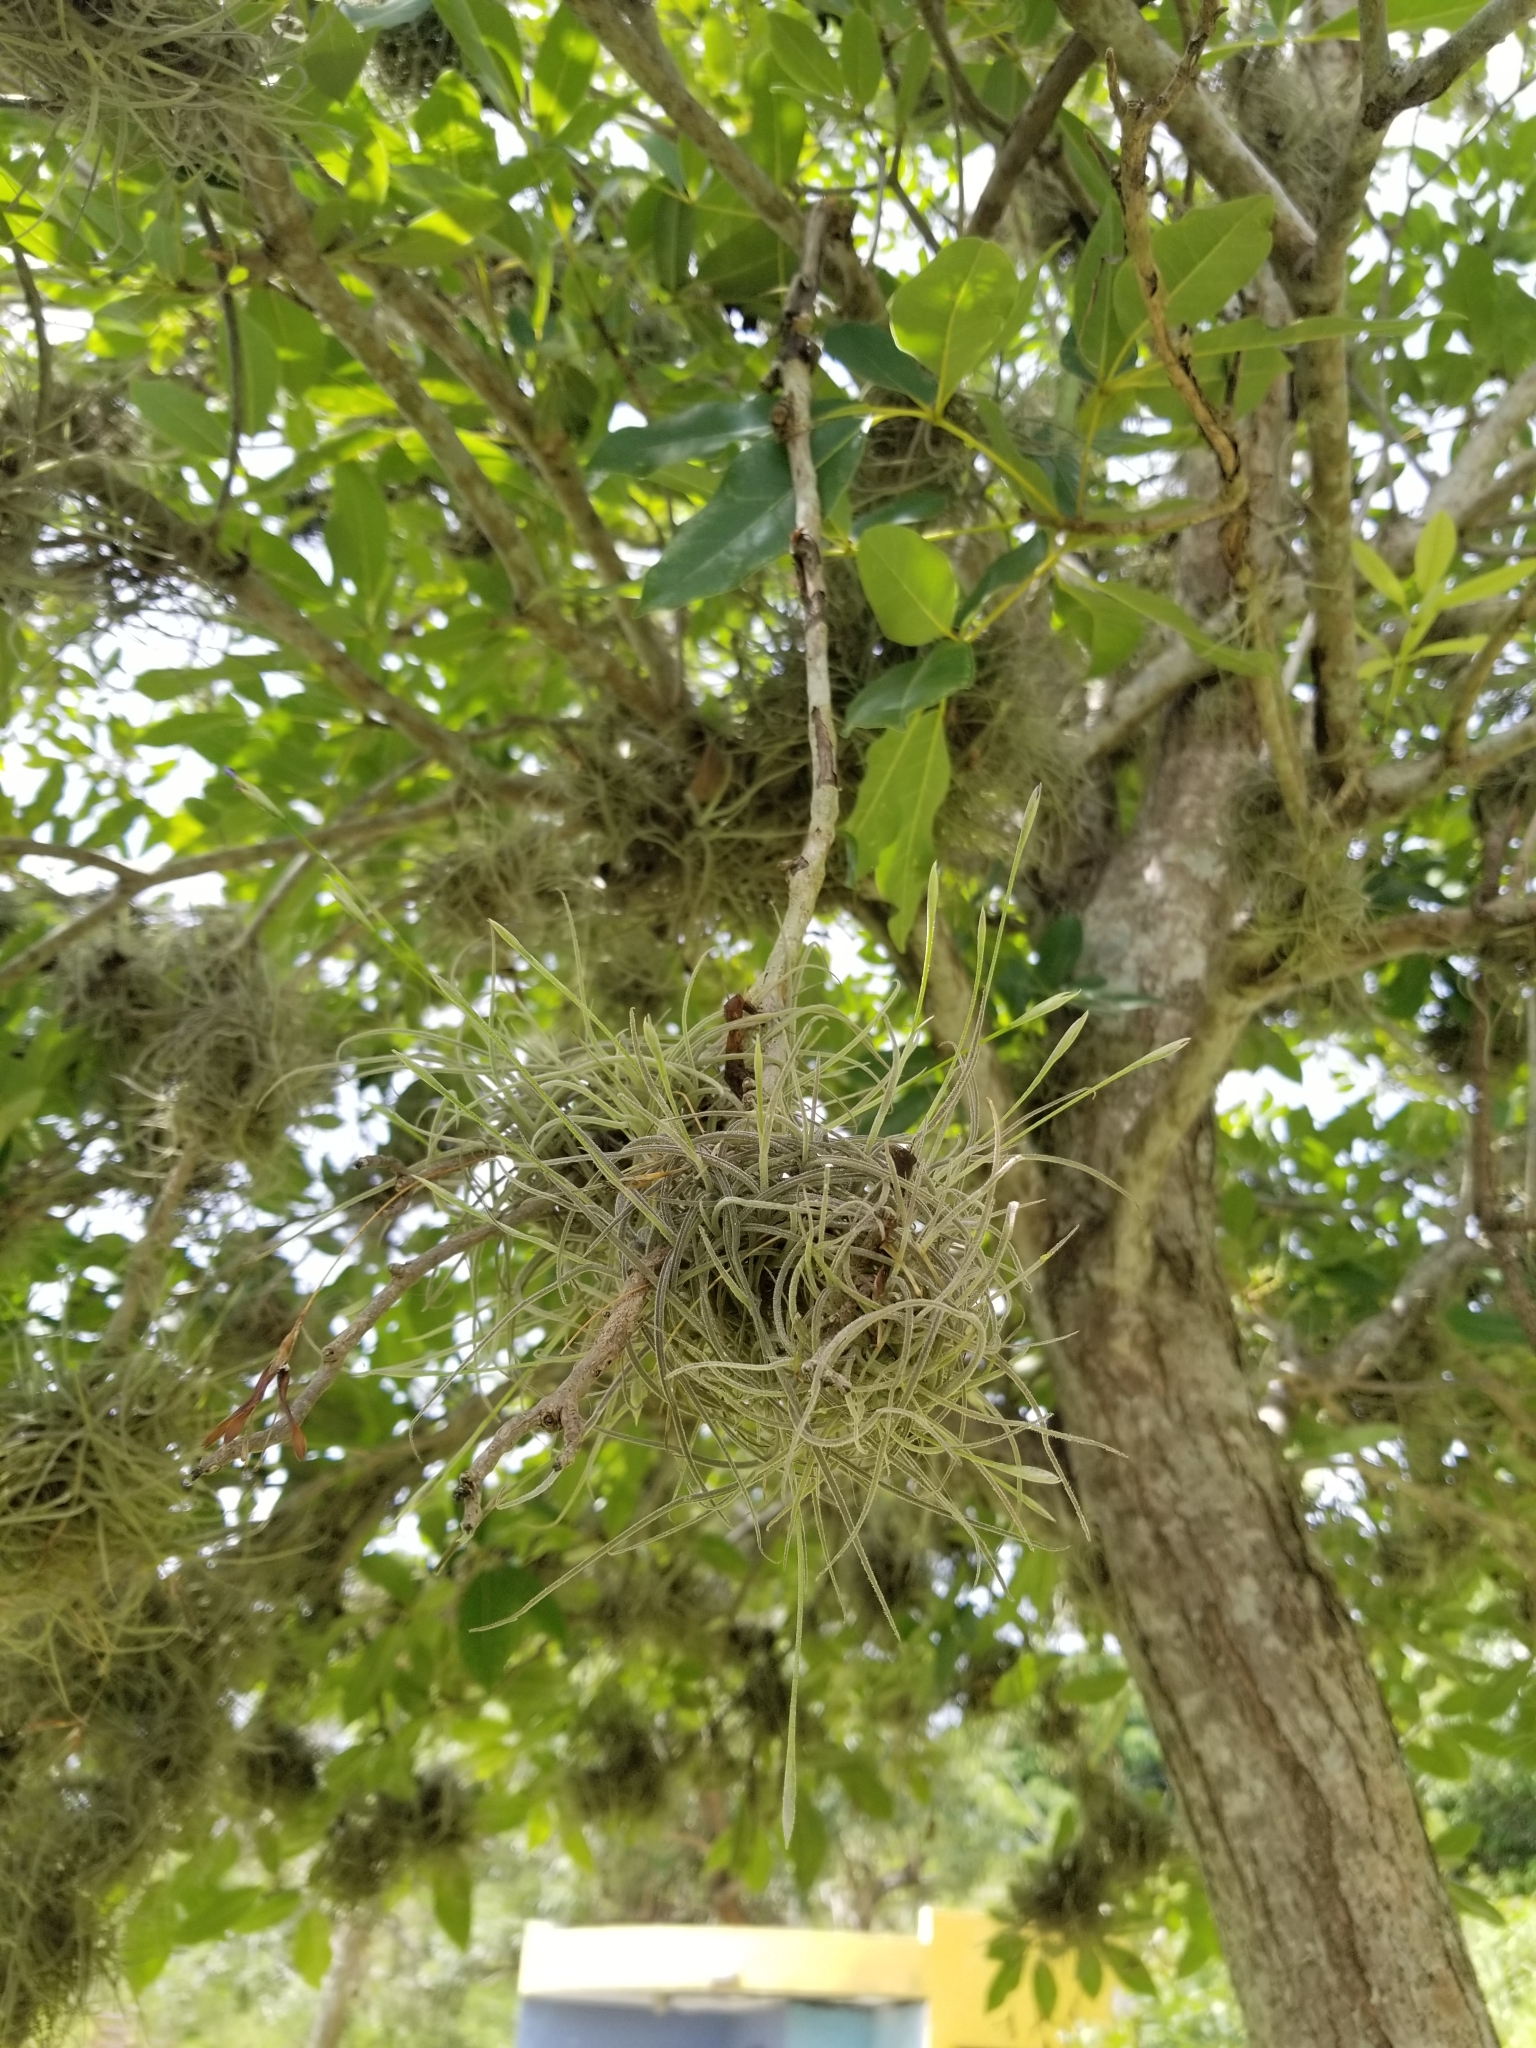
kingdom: Plantae
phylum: Tracheophyta
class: Liliopsida
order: Poales
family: Bromeliaceae
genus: Tillandsia
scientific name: Tillandsia recurvata
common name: Small ballmoss
